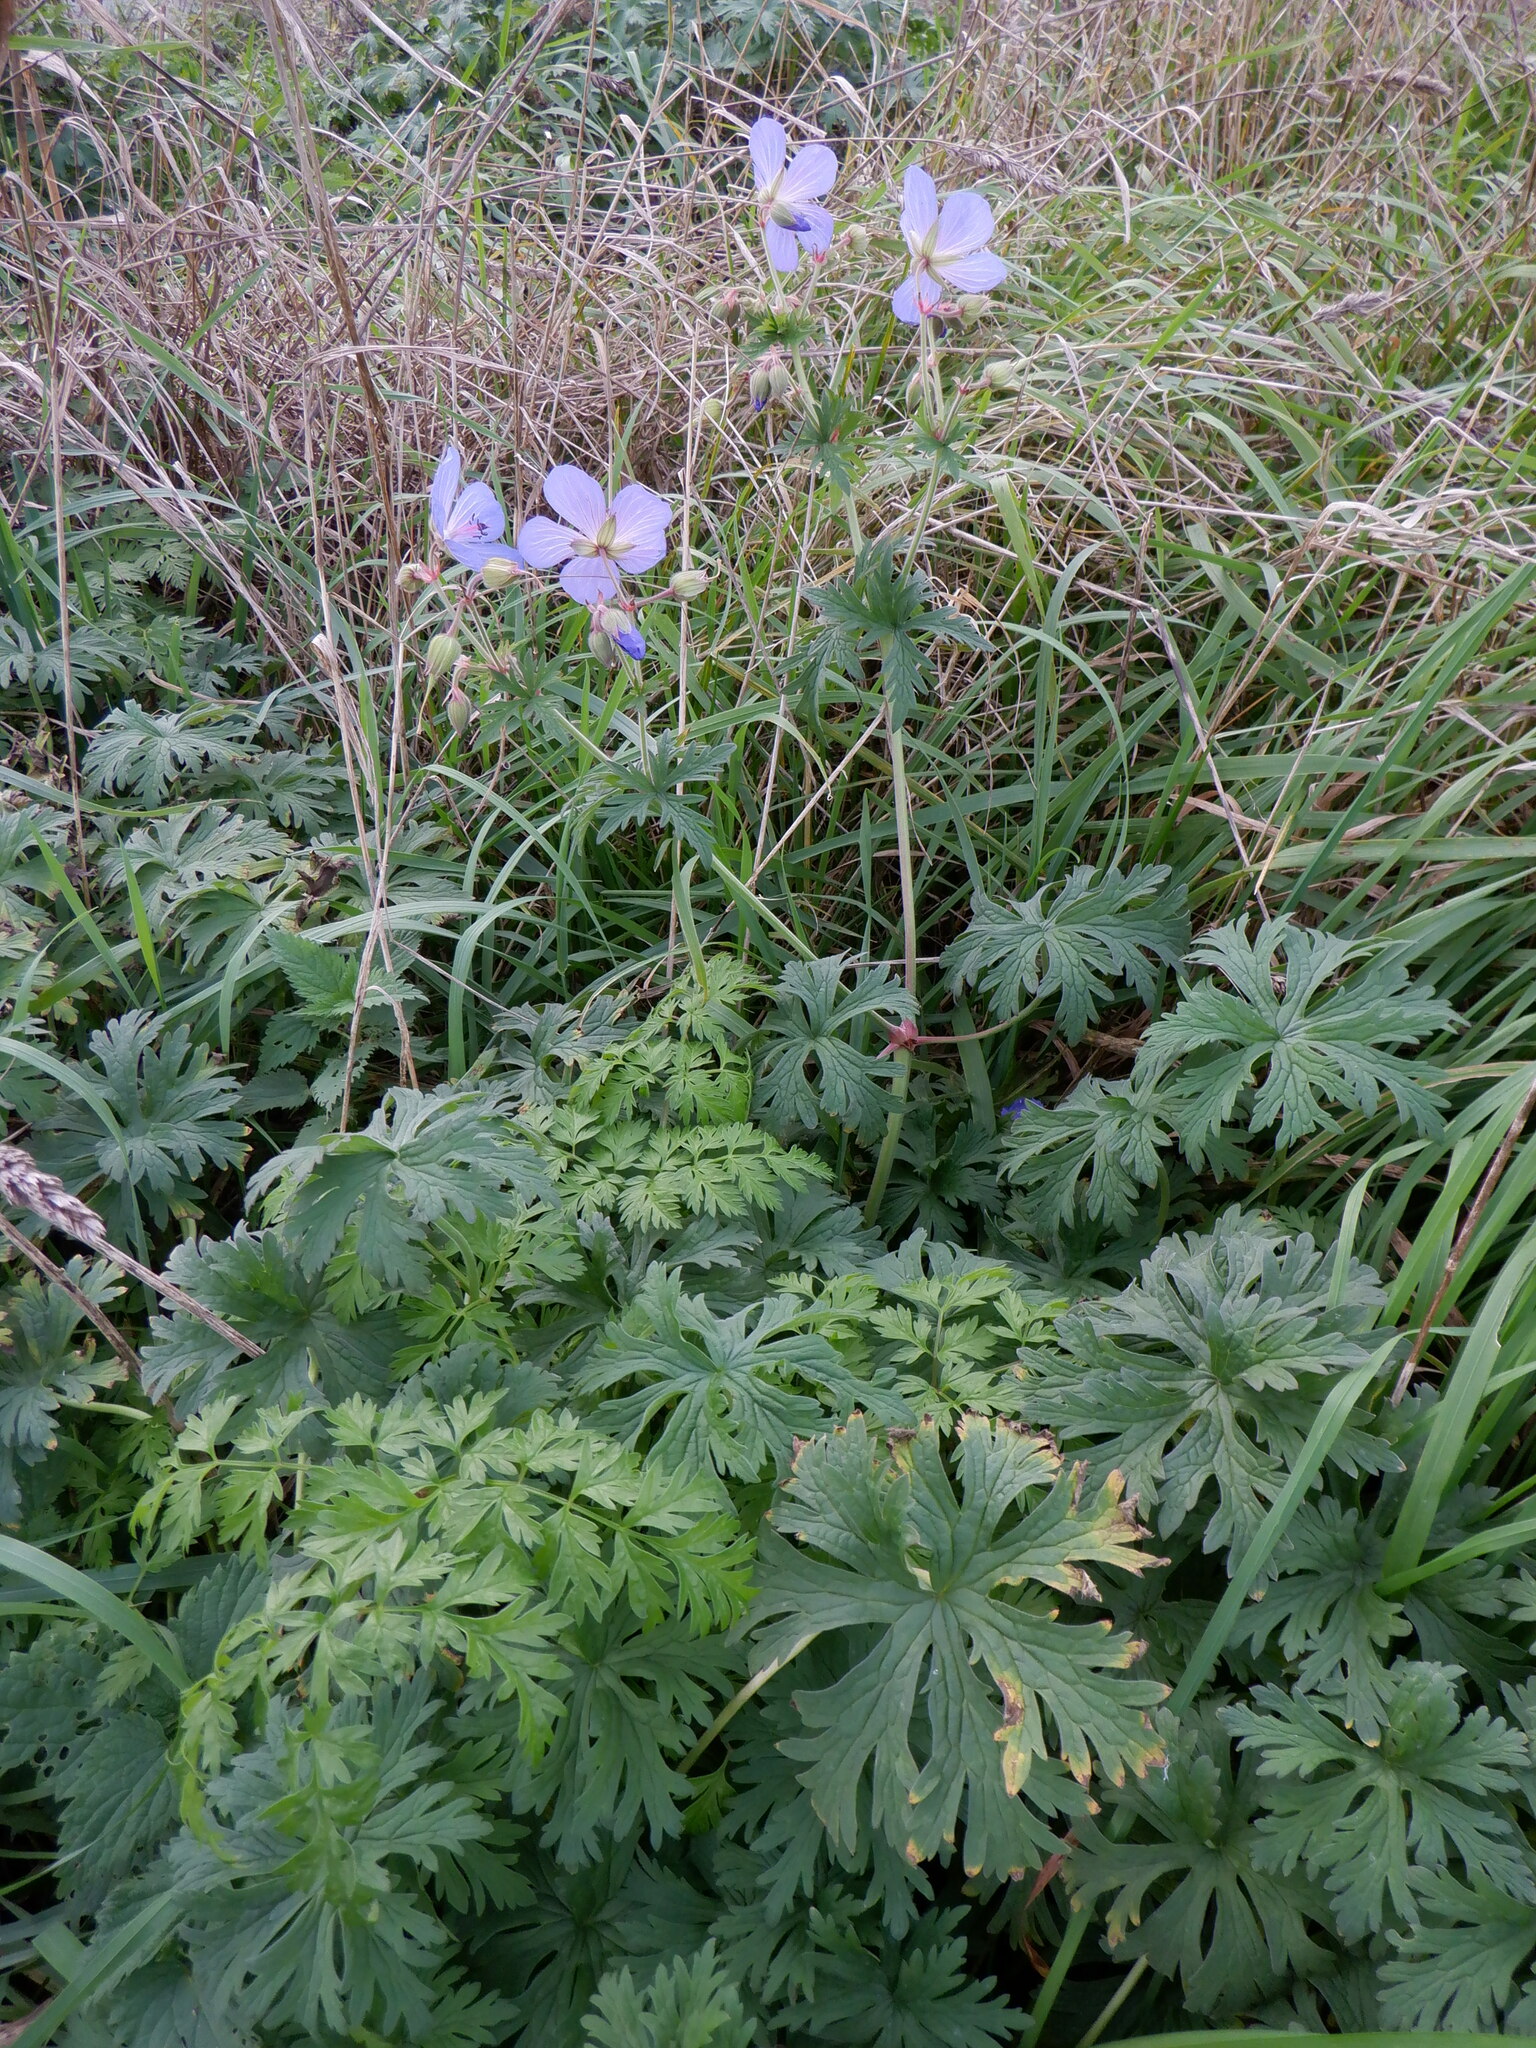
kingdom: Plantae
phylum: Tracheophyta
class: Magnoliopsida
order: Geraniales
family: Geraniaceae
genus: Geranium
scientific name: Geranium pratense
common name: Meadow crane's-bill
